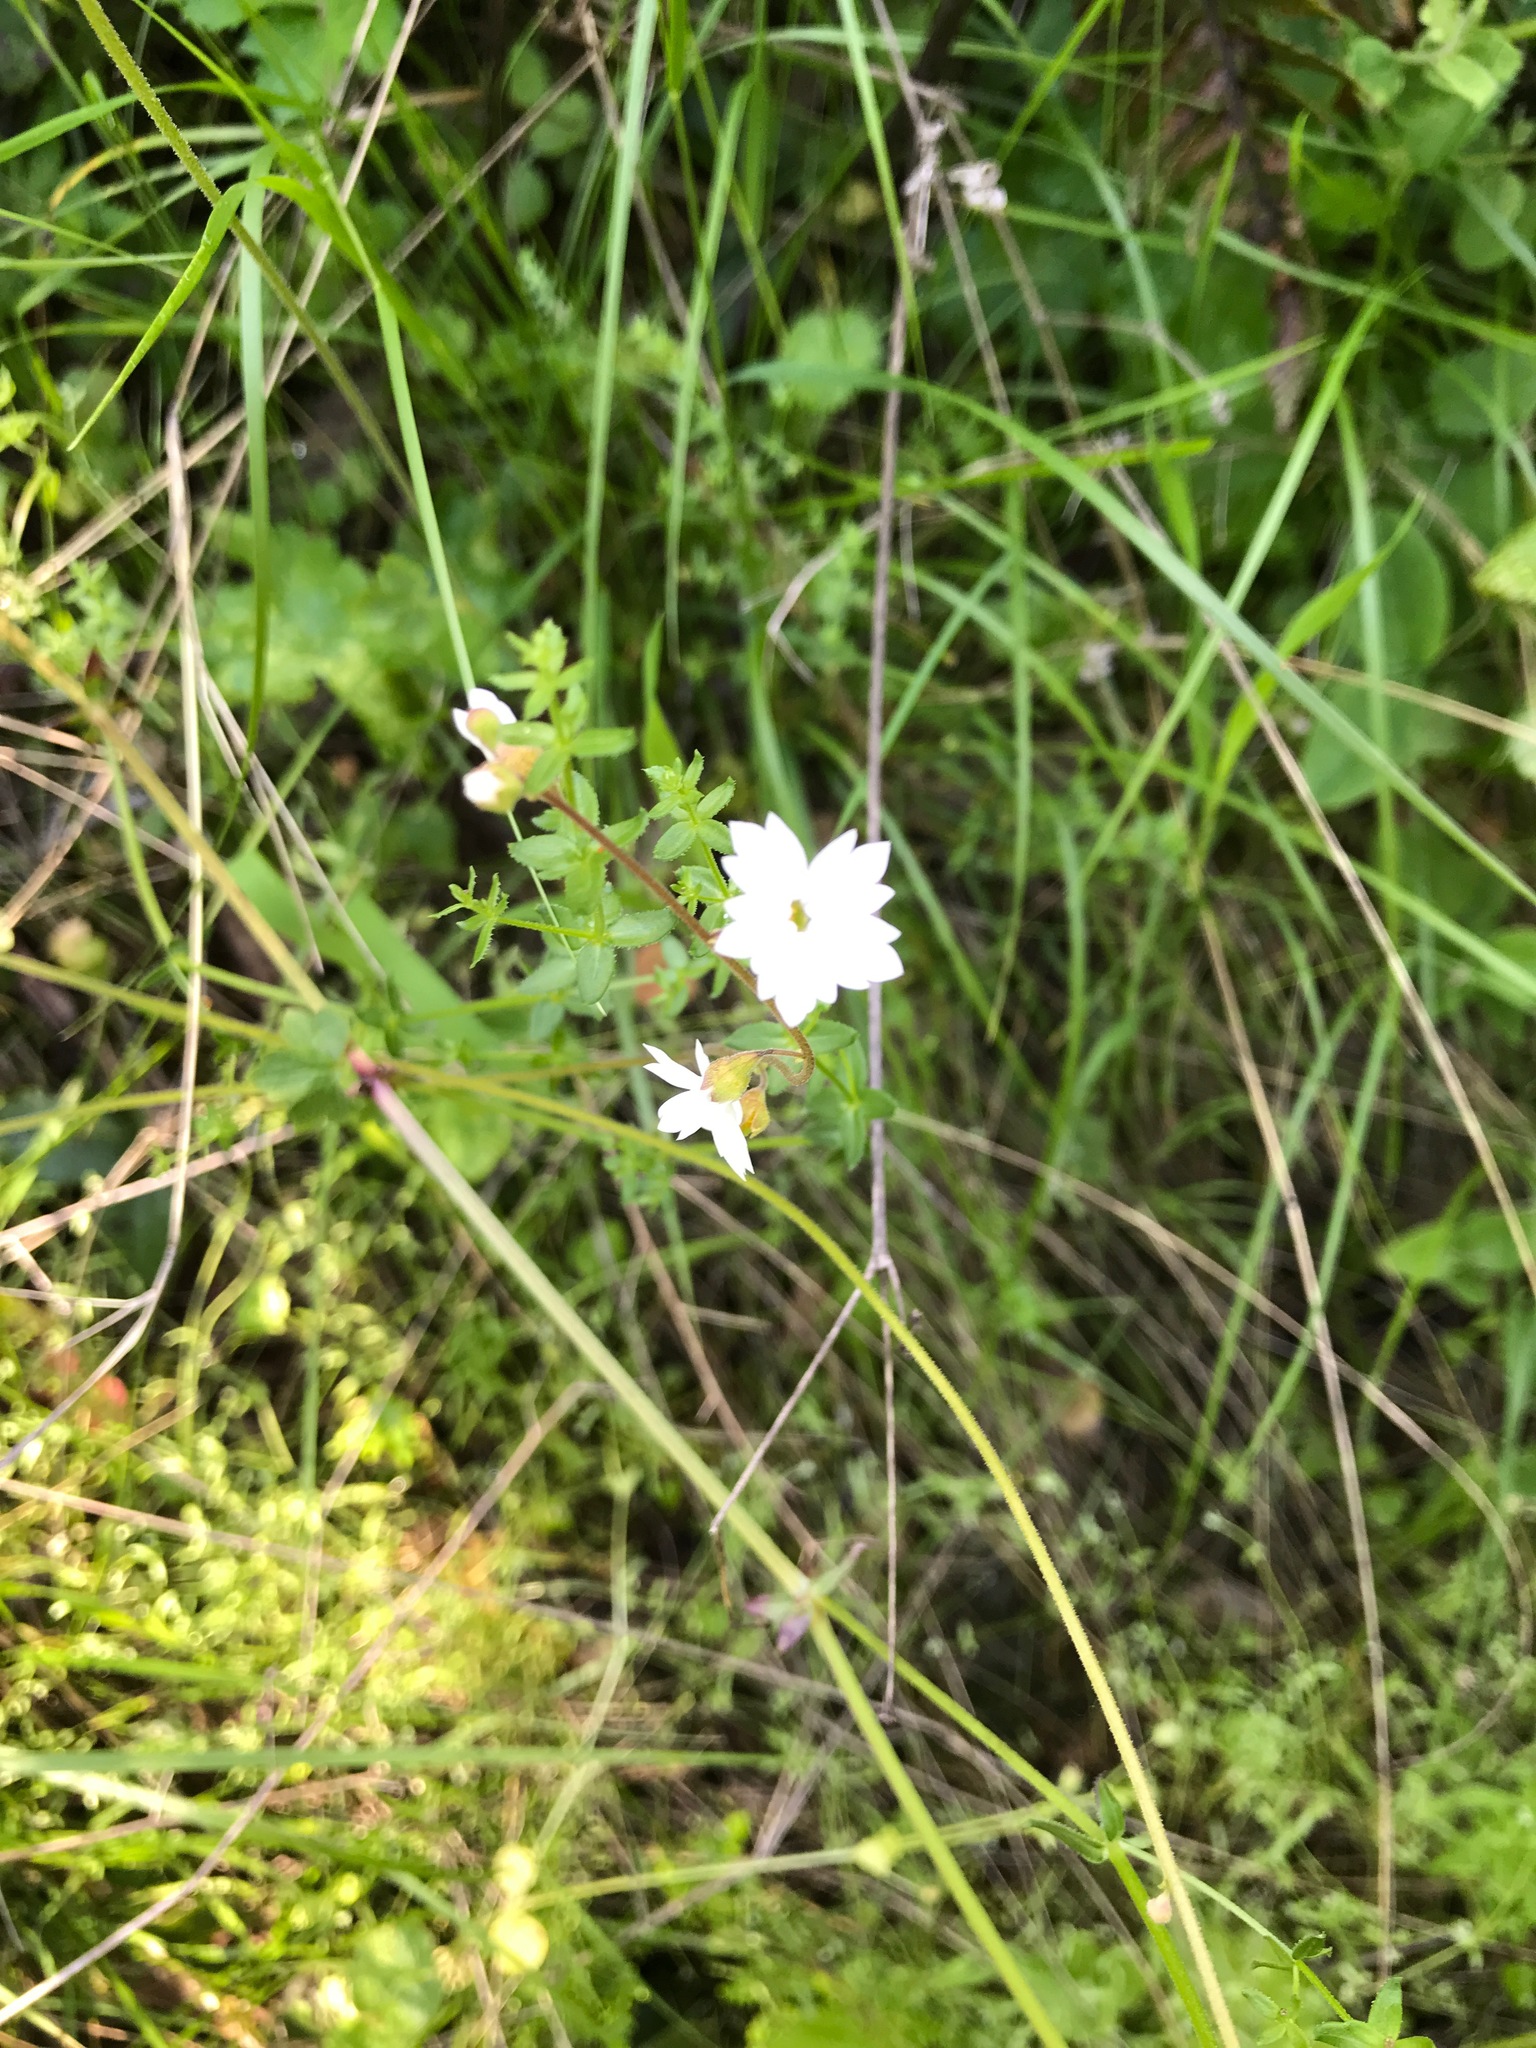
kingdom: Plantae
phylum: Tracheophyta
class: Magnoliopsida
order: Saxifragales
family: Saxifragaceae
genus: Lithophragma
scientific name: Lithophragma affine
